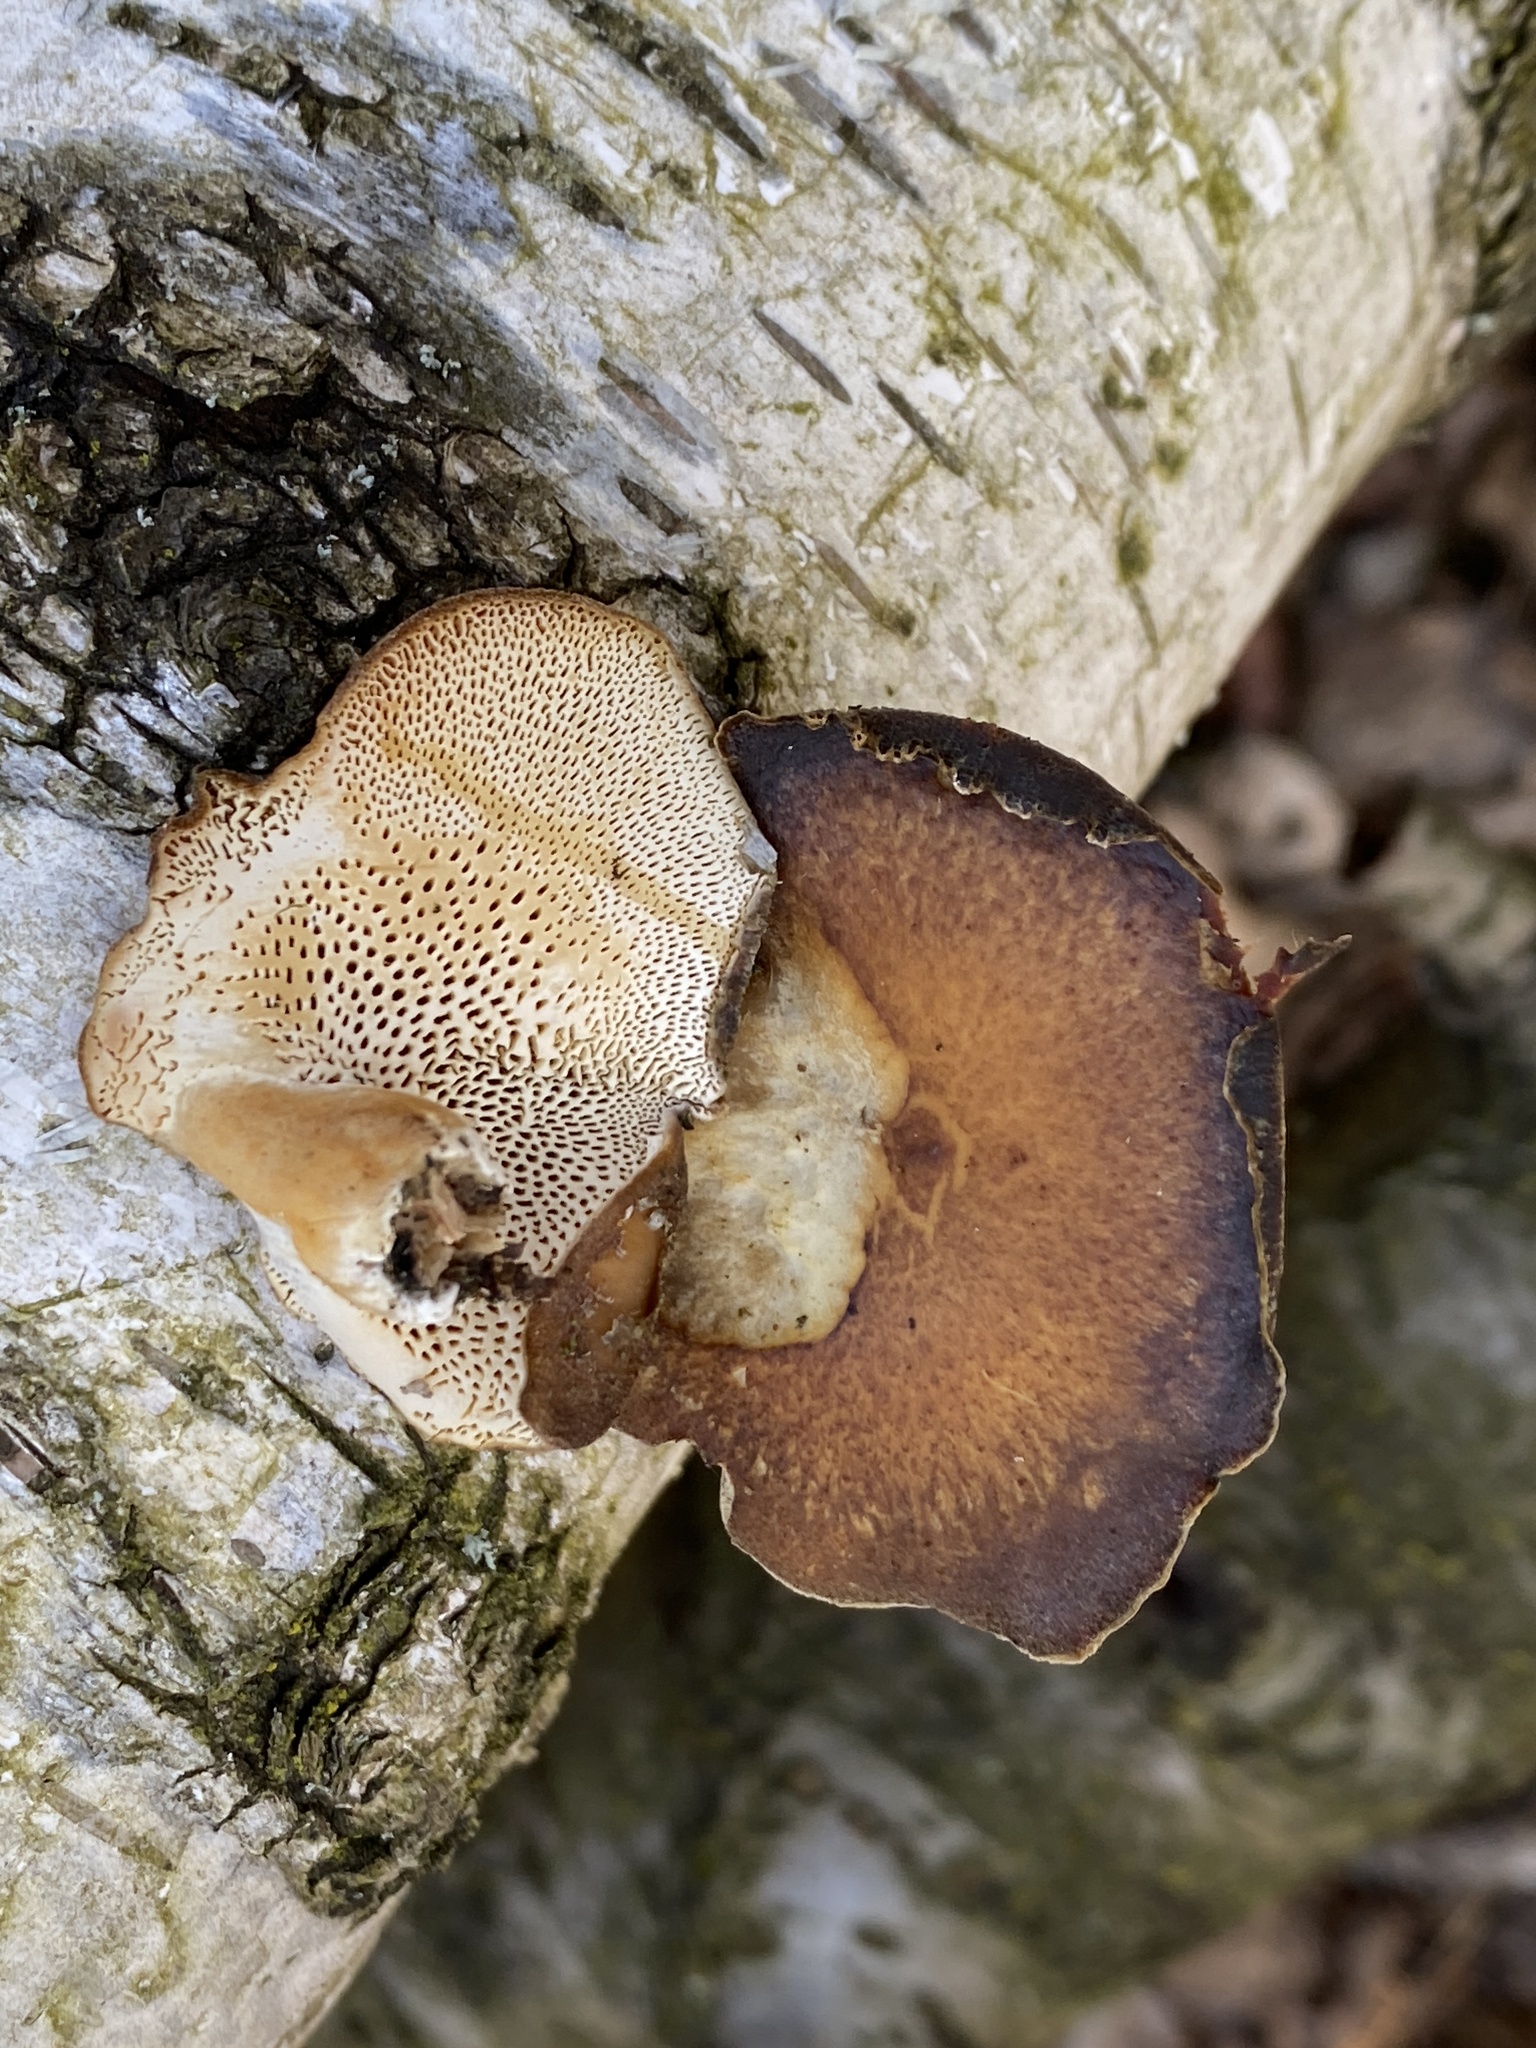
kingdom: Fungi
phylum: Basidiomycota
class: Agaricomycetes
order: Polyporales
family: Polyporaceae
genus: Lentinus
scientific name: Lentinus brumalis
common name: Winter polypore
